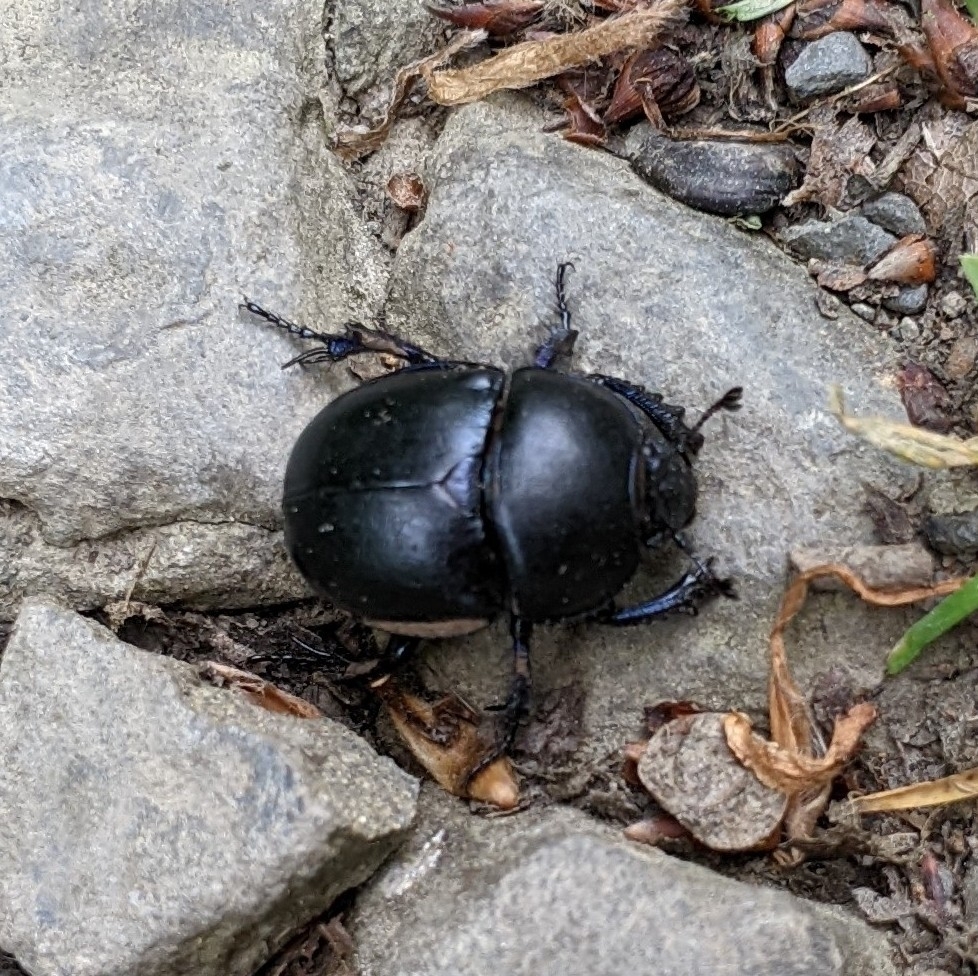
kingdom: Animalia
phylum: Arthropoda
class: Insecta
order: Coleoptera
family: Geotrupidae
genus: Trypocopris
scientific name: Trypocopris vernalis
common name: Spring dumbledor
